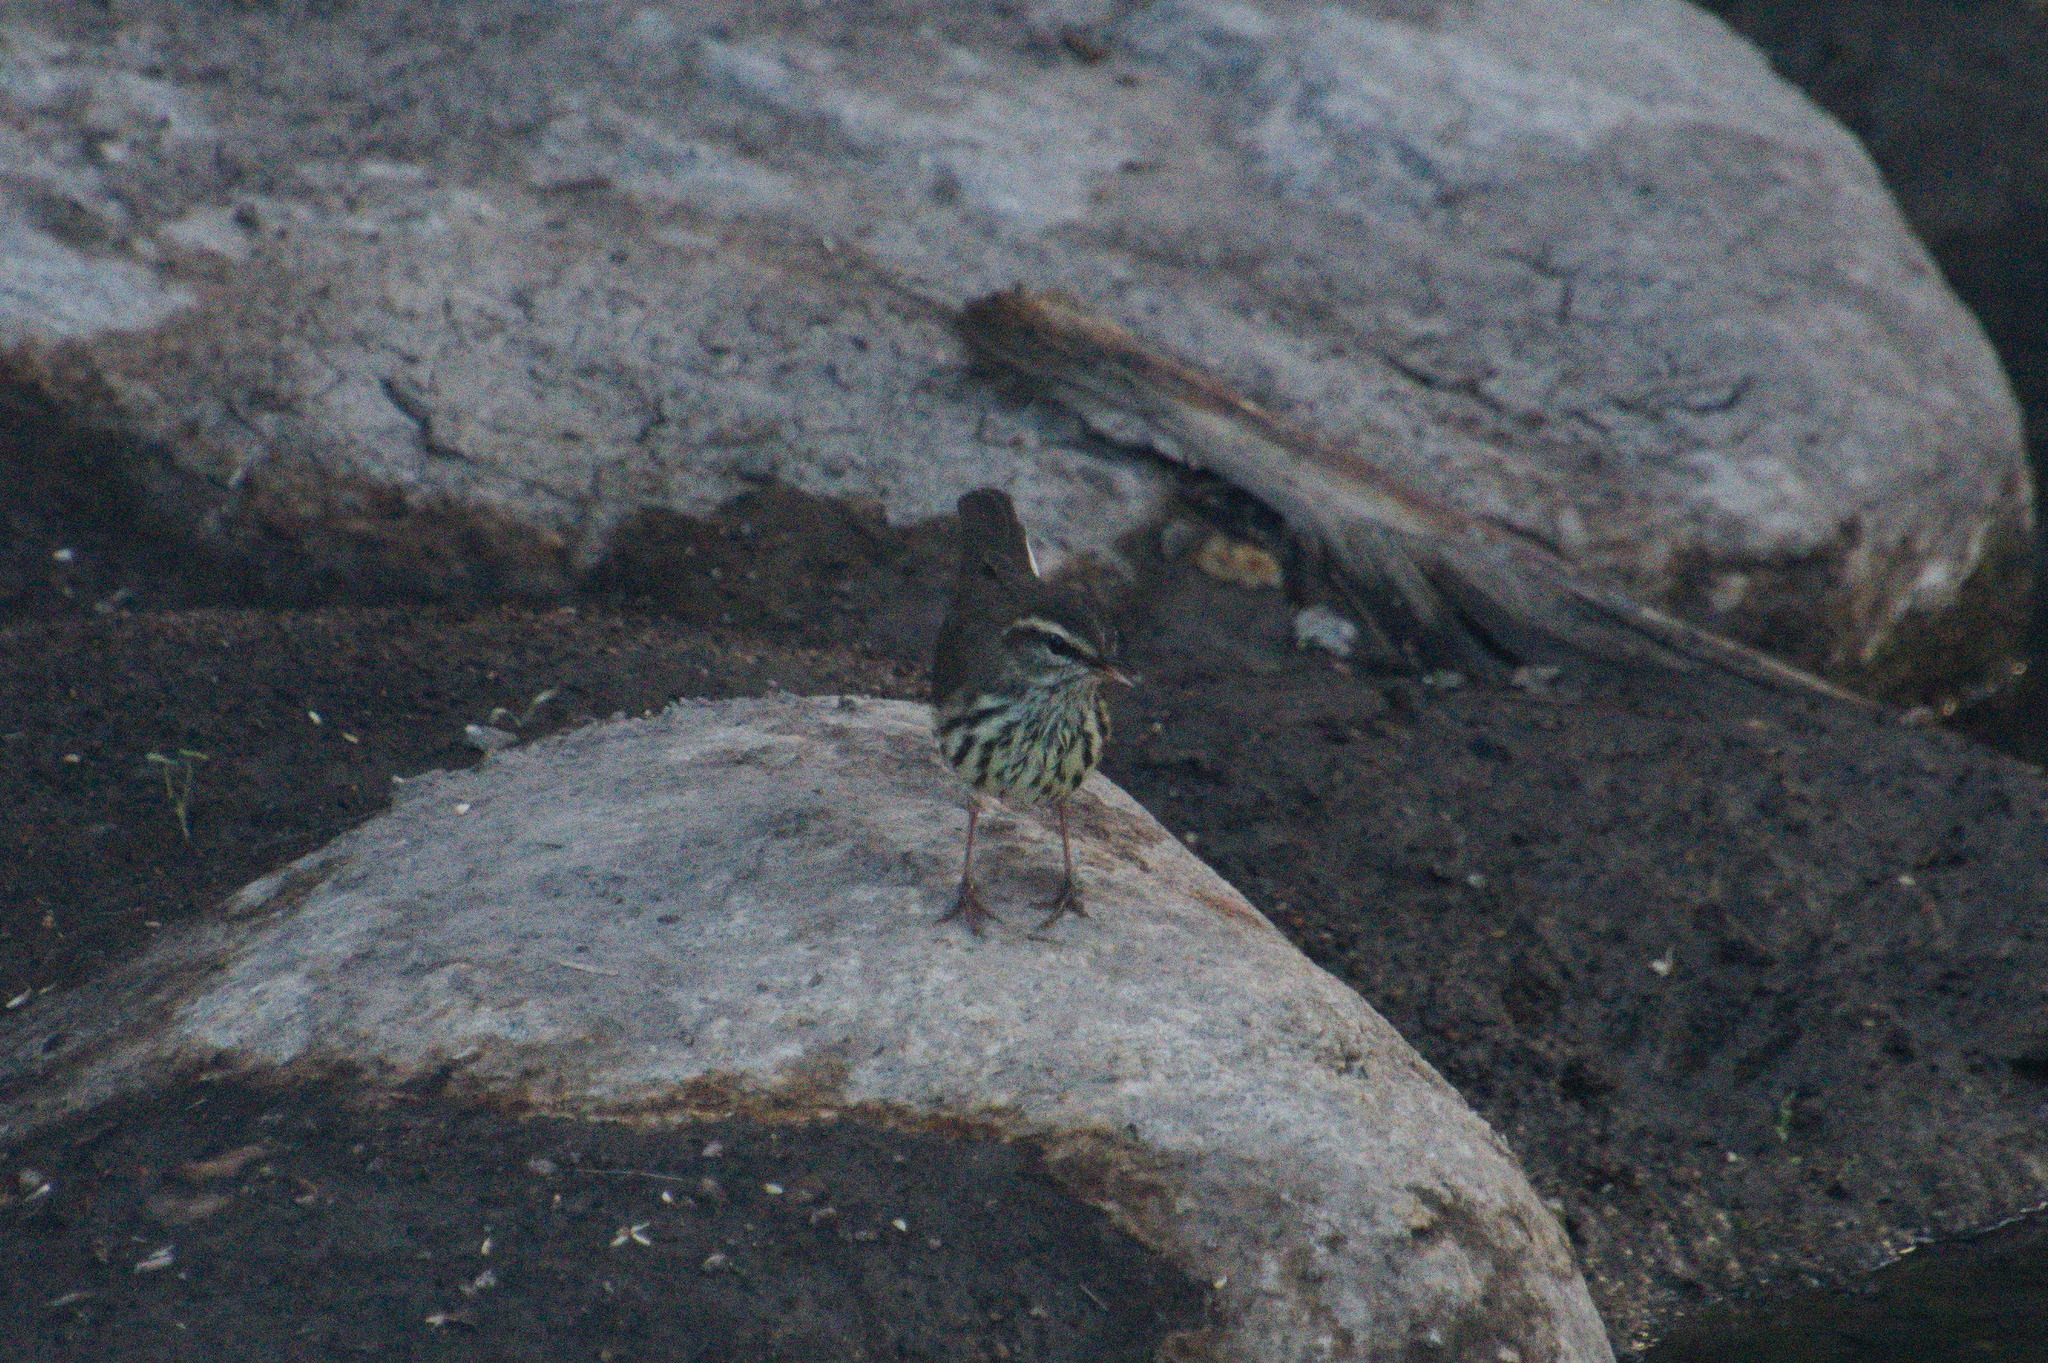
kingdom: Animalia
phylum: Chordata
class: Aves
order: Passeriformes
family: Parulidae
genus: Parkesia
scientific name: Parkesia noveboracensis
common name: Northern waterthrush
